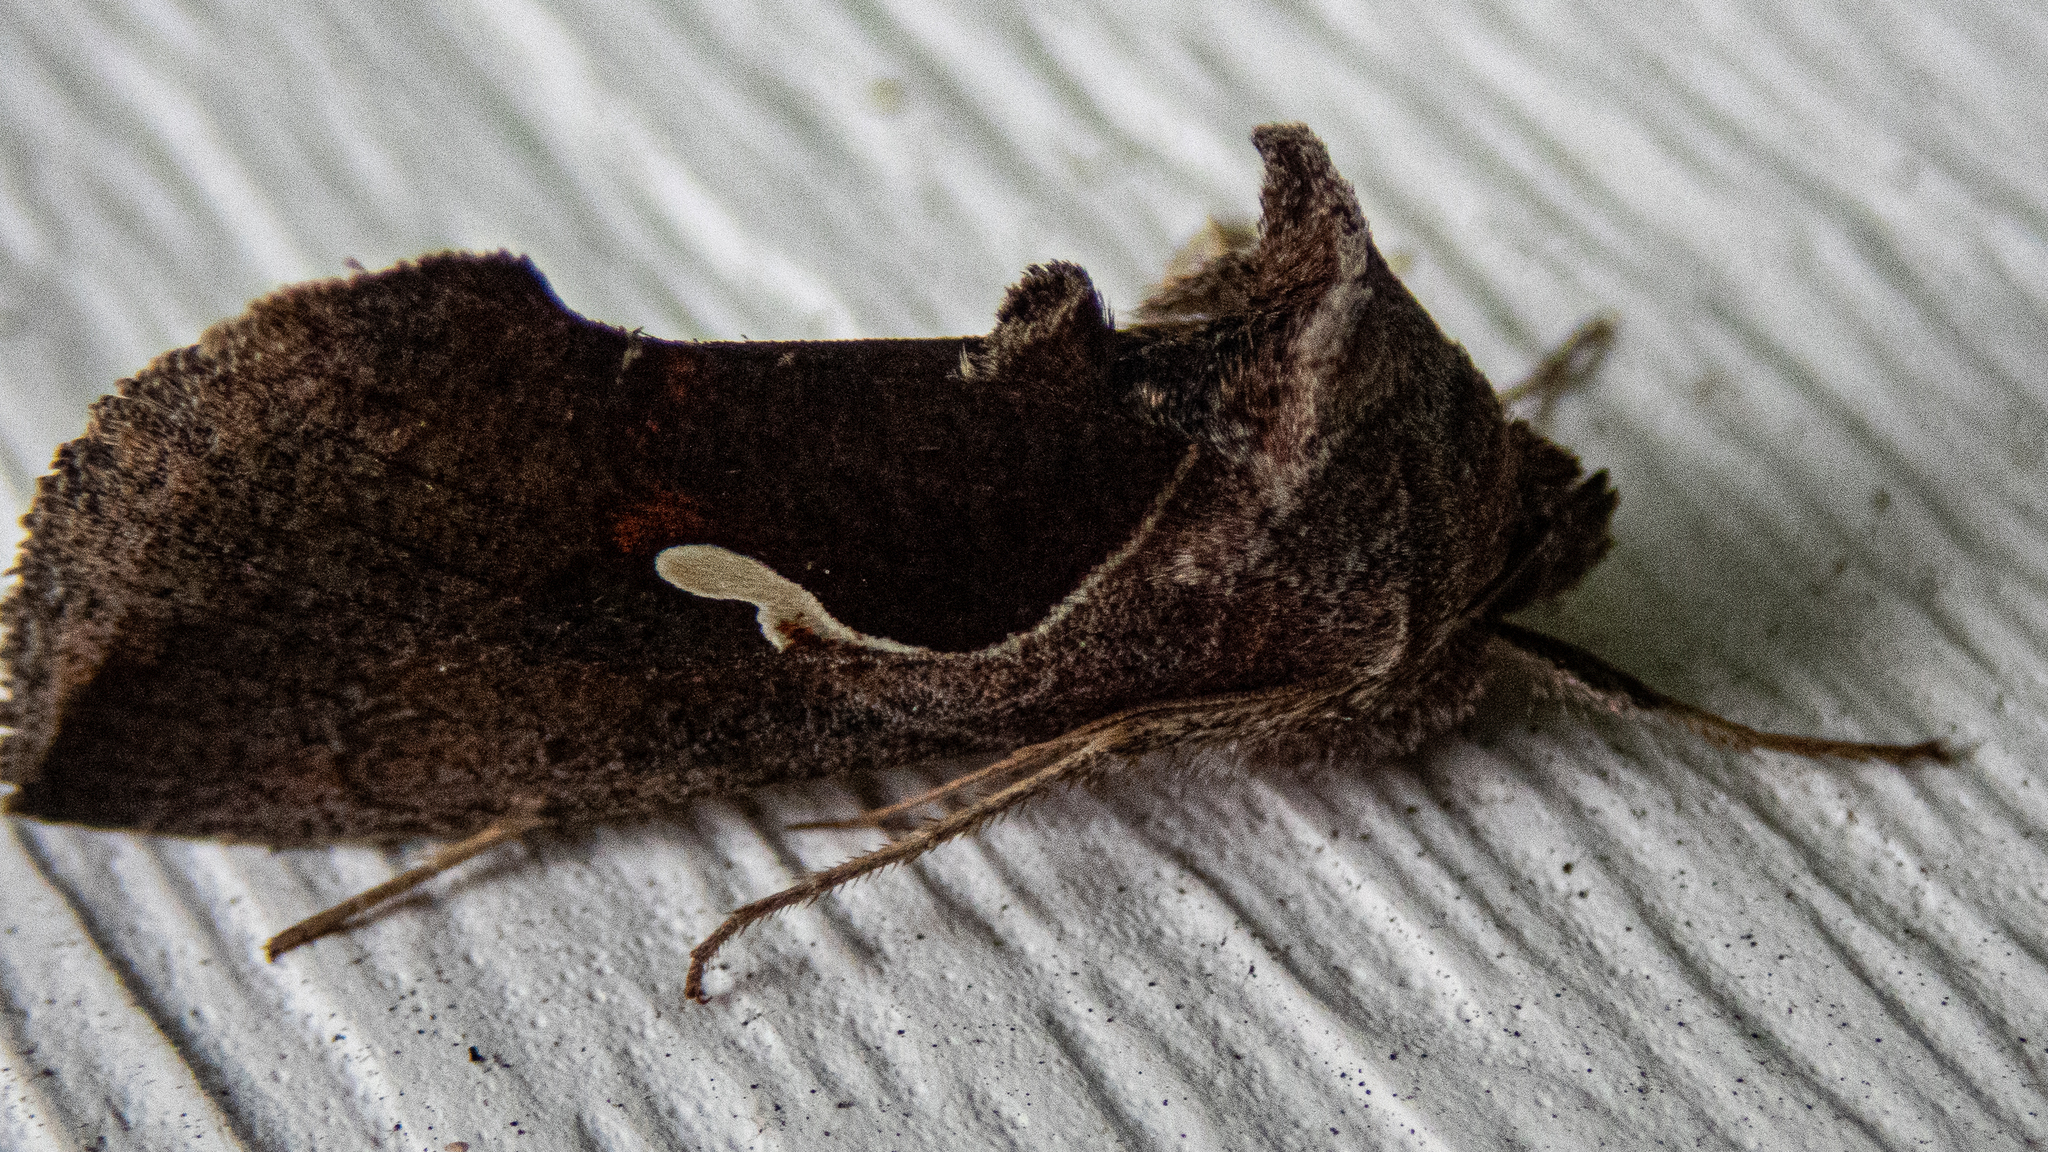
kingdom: Animalia
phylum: Arthropoda
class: Insecta
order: Lepidoptera
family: Noctuidae
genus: Anagrapha
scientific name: Anagrapha falcifera
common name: Celery looper
